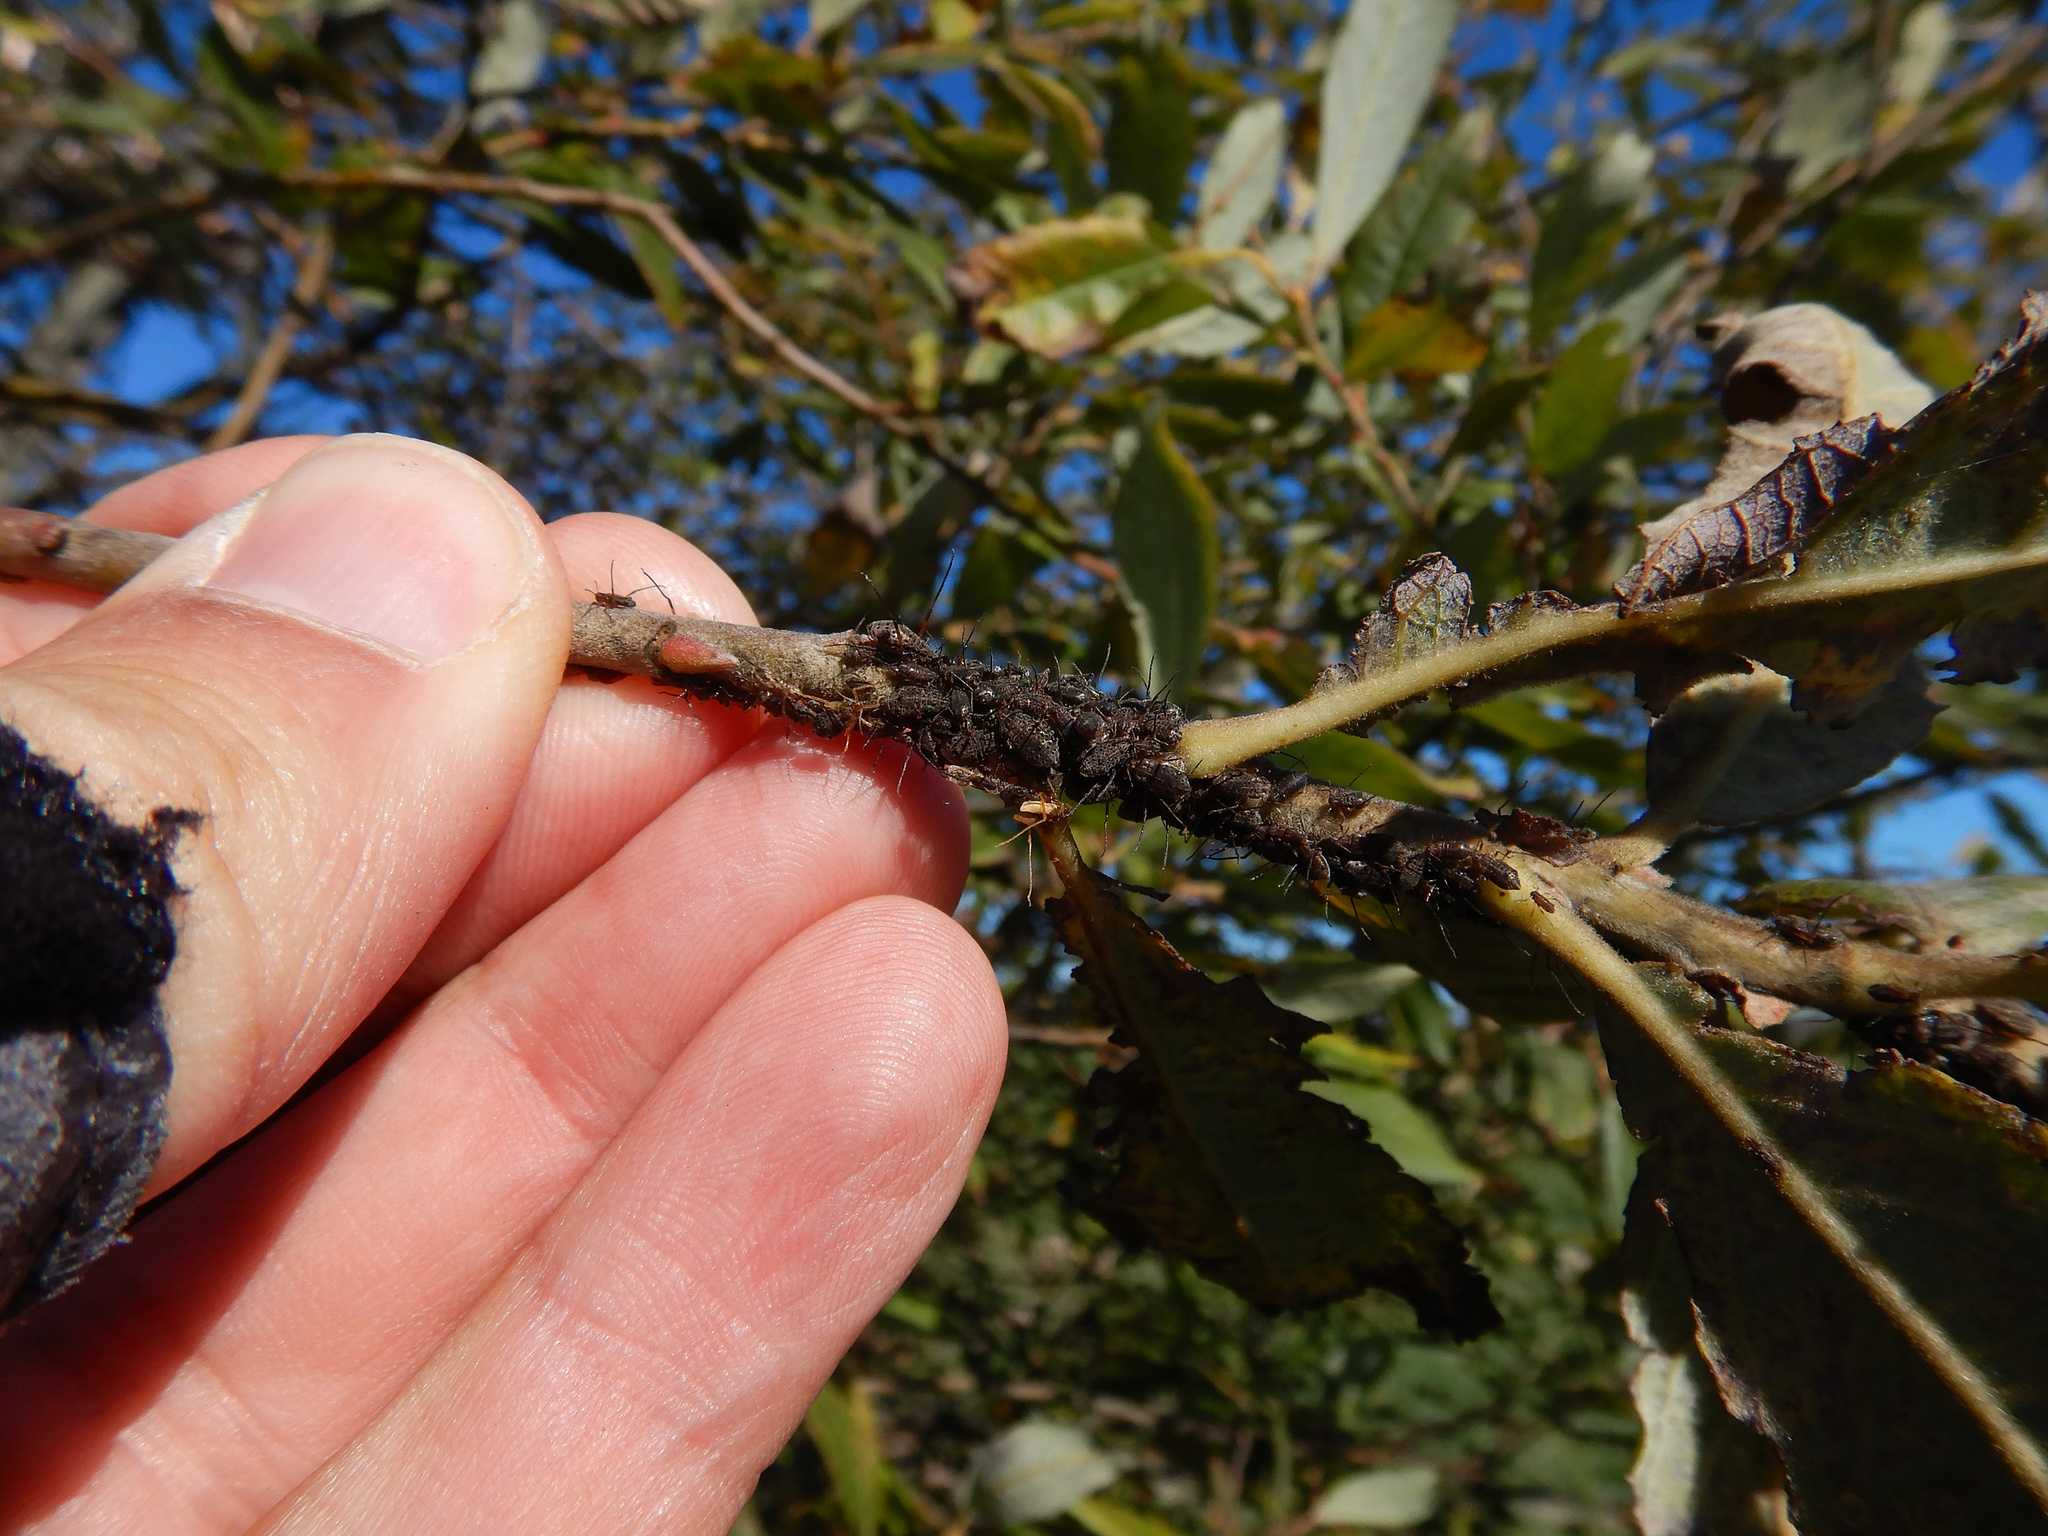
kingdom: Animalia
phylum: Arthropoda
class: Insecta
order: Hemiptera
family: Aphididae
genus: Tuberolachnus
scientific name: Tuberolachnus salignus
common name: Giant willow aphid
